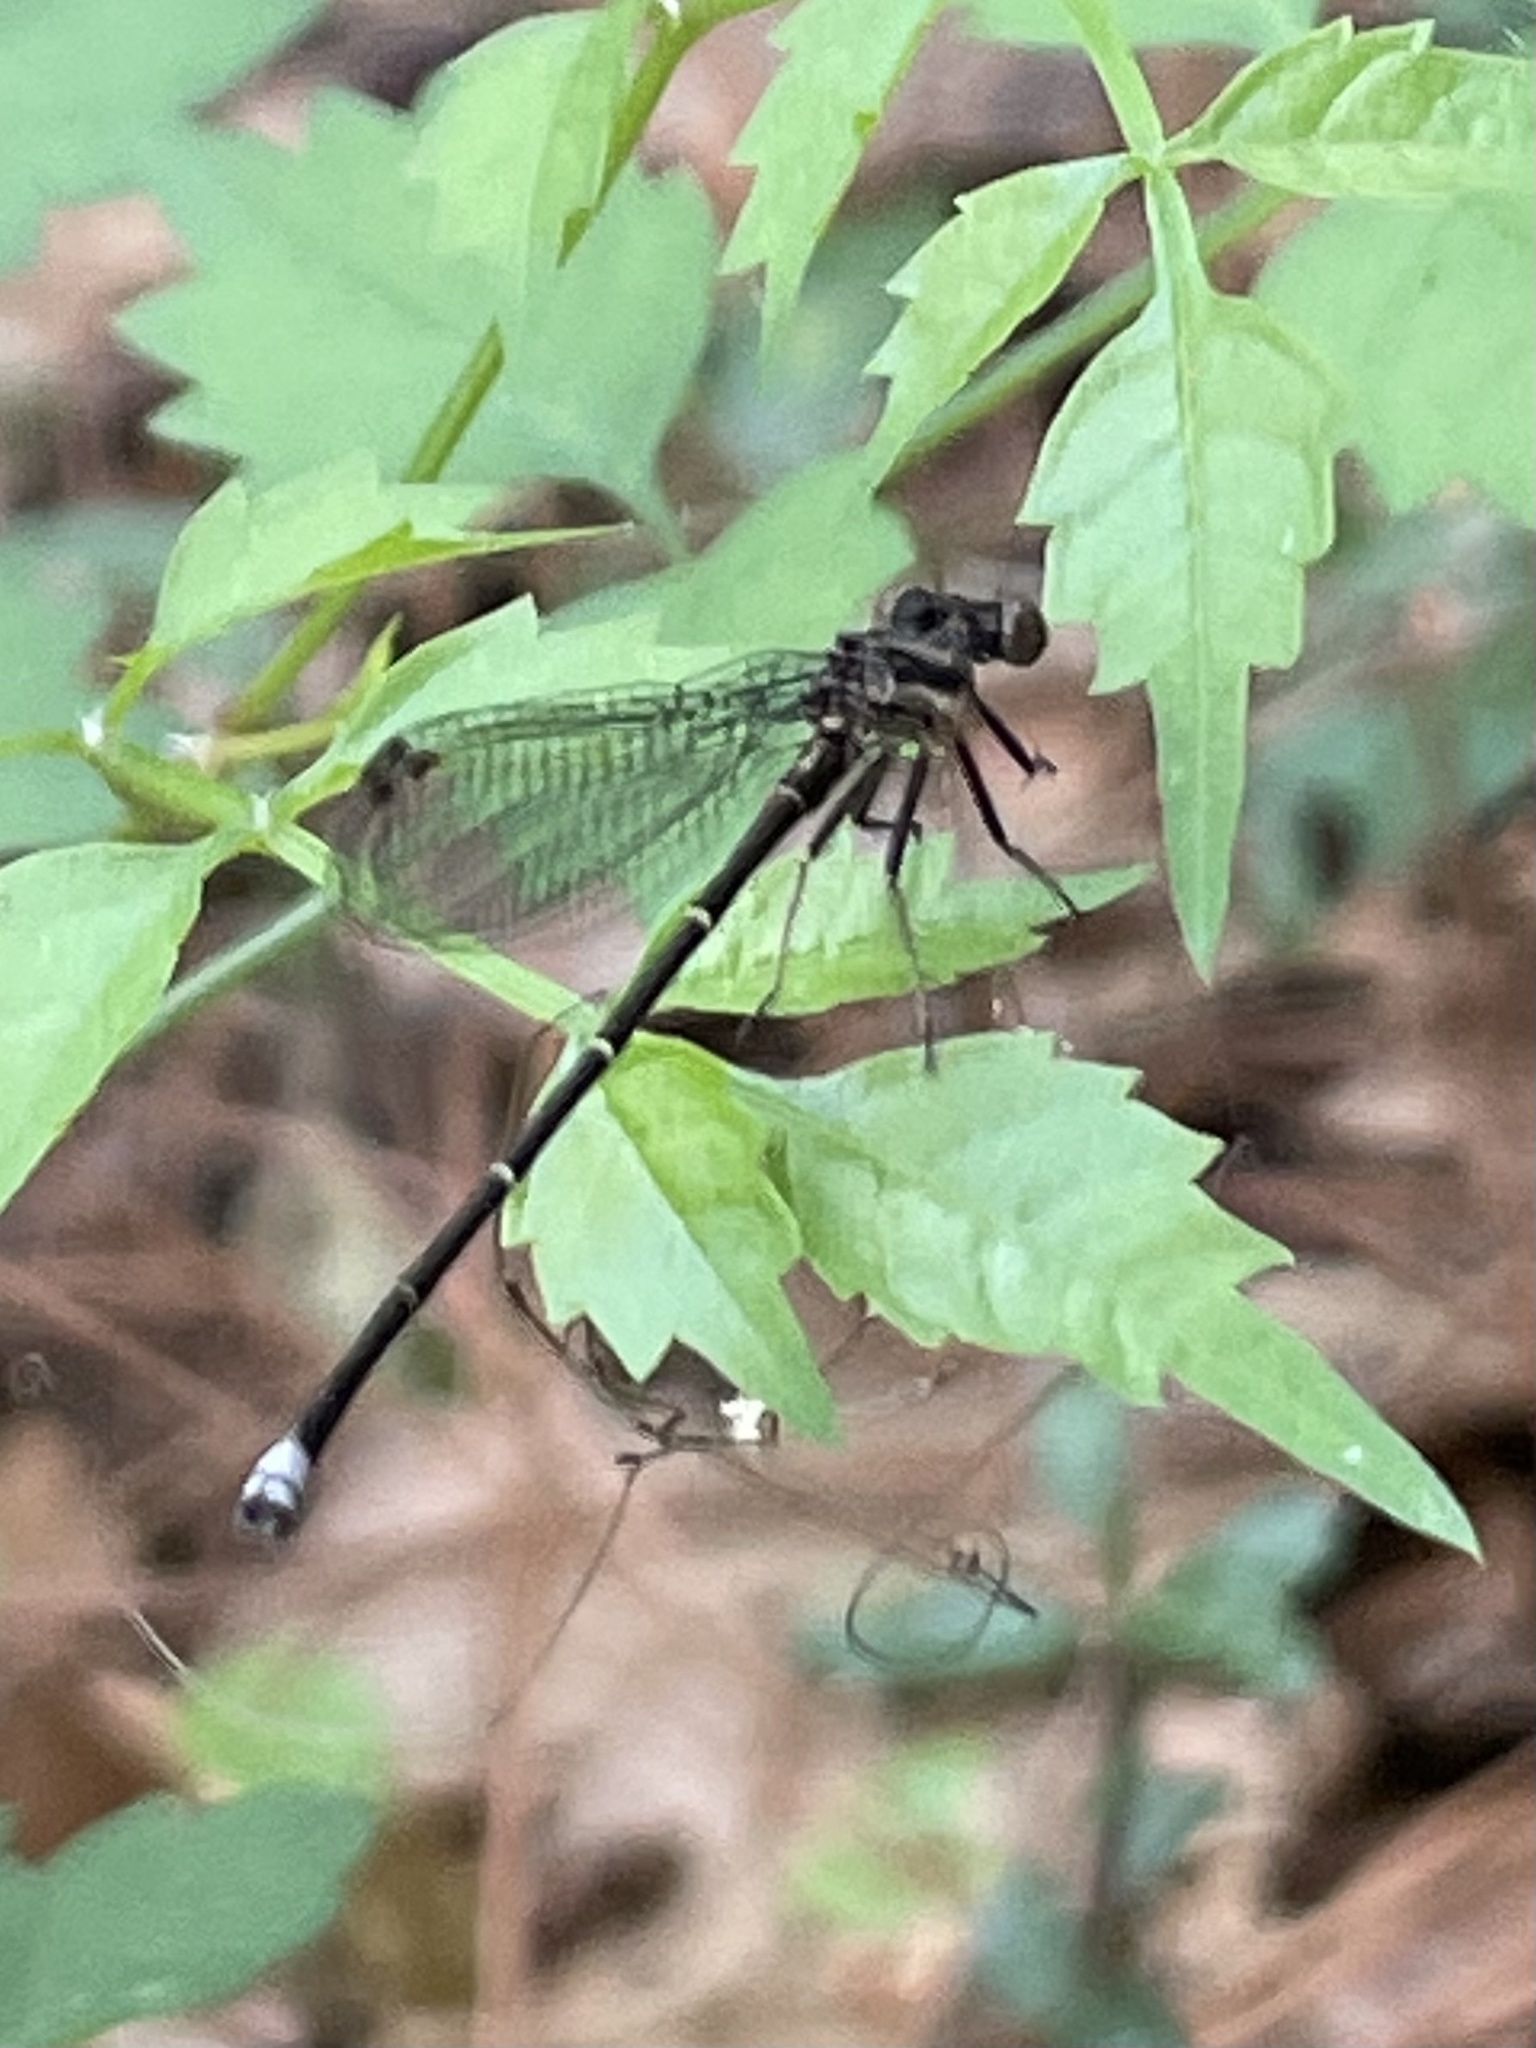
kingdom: Animalia
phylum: Arthropoda
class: Insecta
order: Odonata
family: Coenagrionidae
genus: Argia
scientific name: Argia tibialis
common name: Blue-tipped dancer
